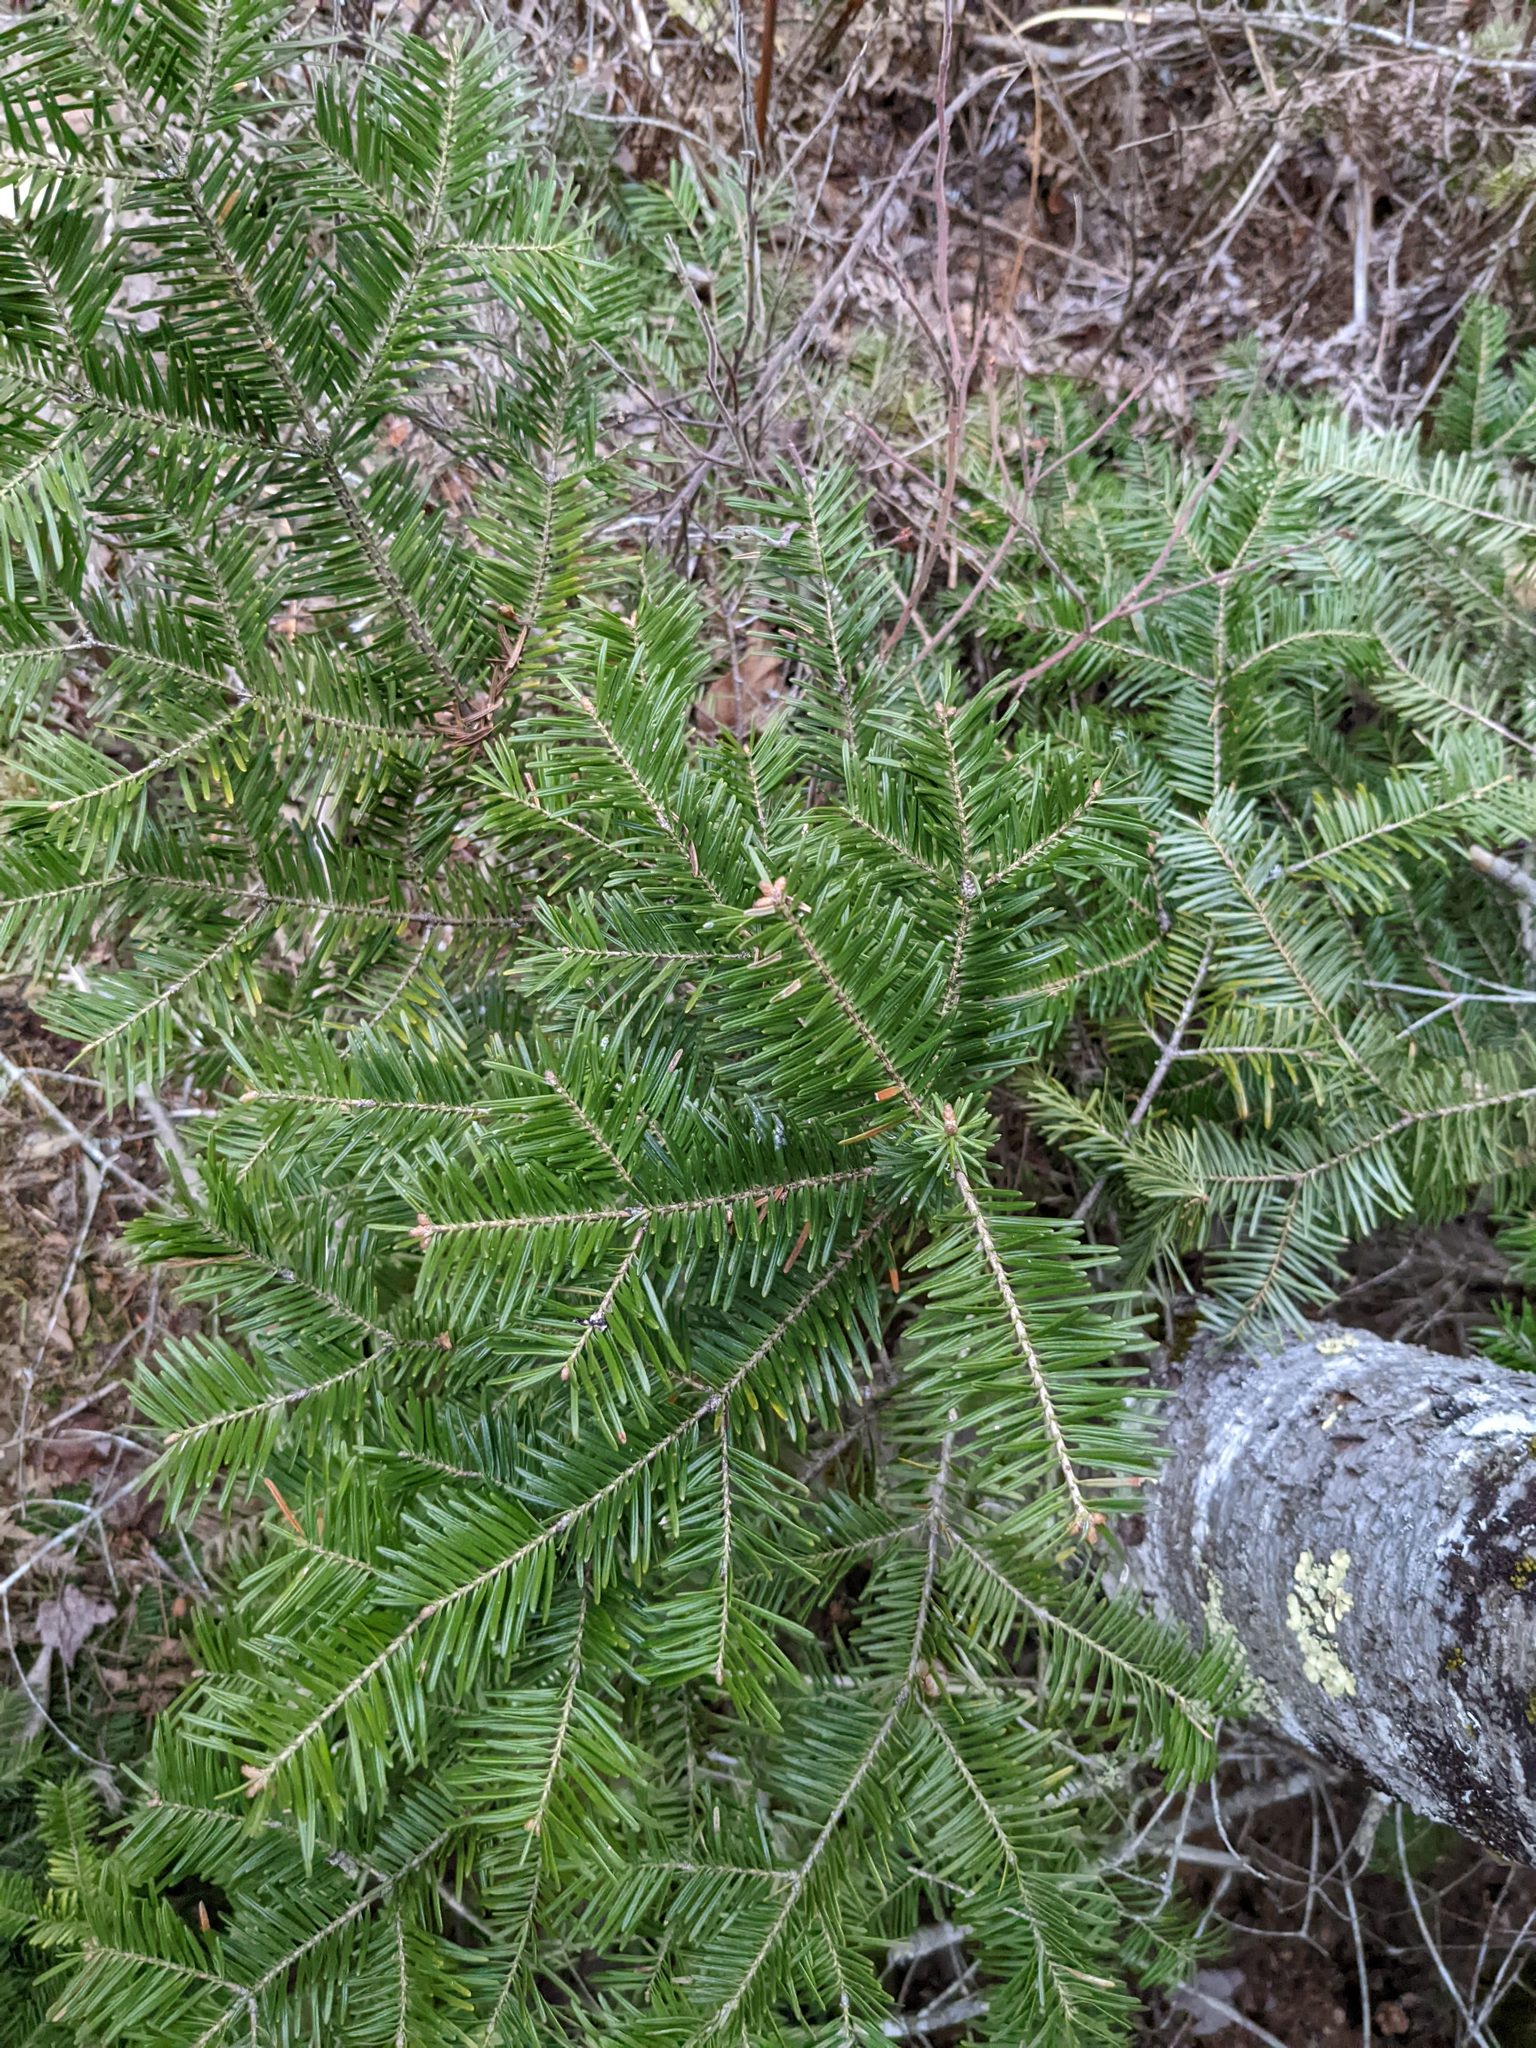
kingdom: Plantae
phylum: Tracheophyta
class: Pinopsida
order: Pinales
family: Pinaceae
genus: Abies
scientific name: Abies balsamea
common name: Balsam fir
